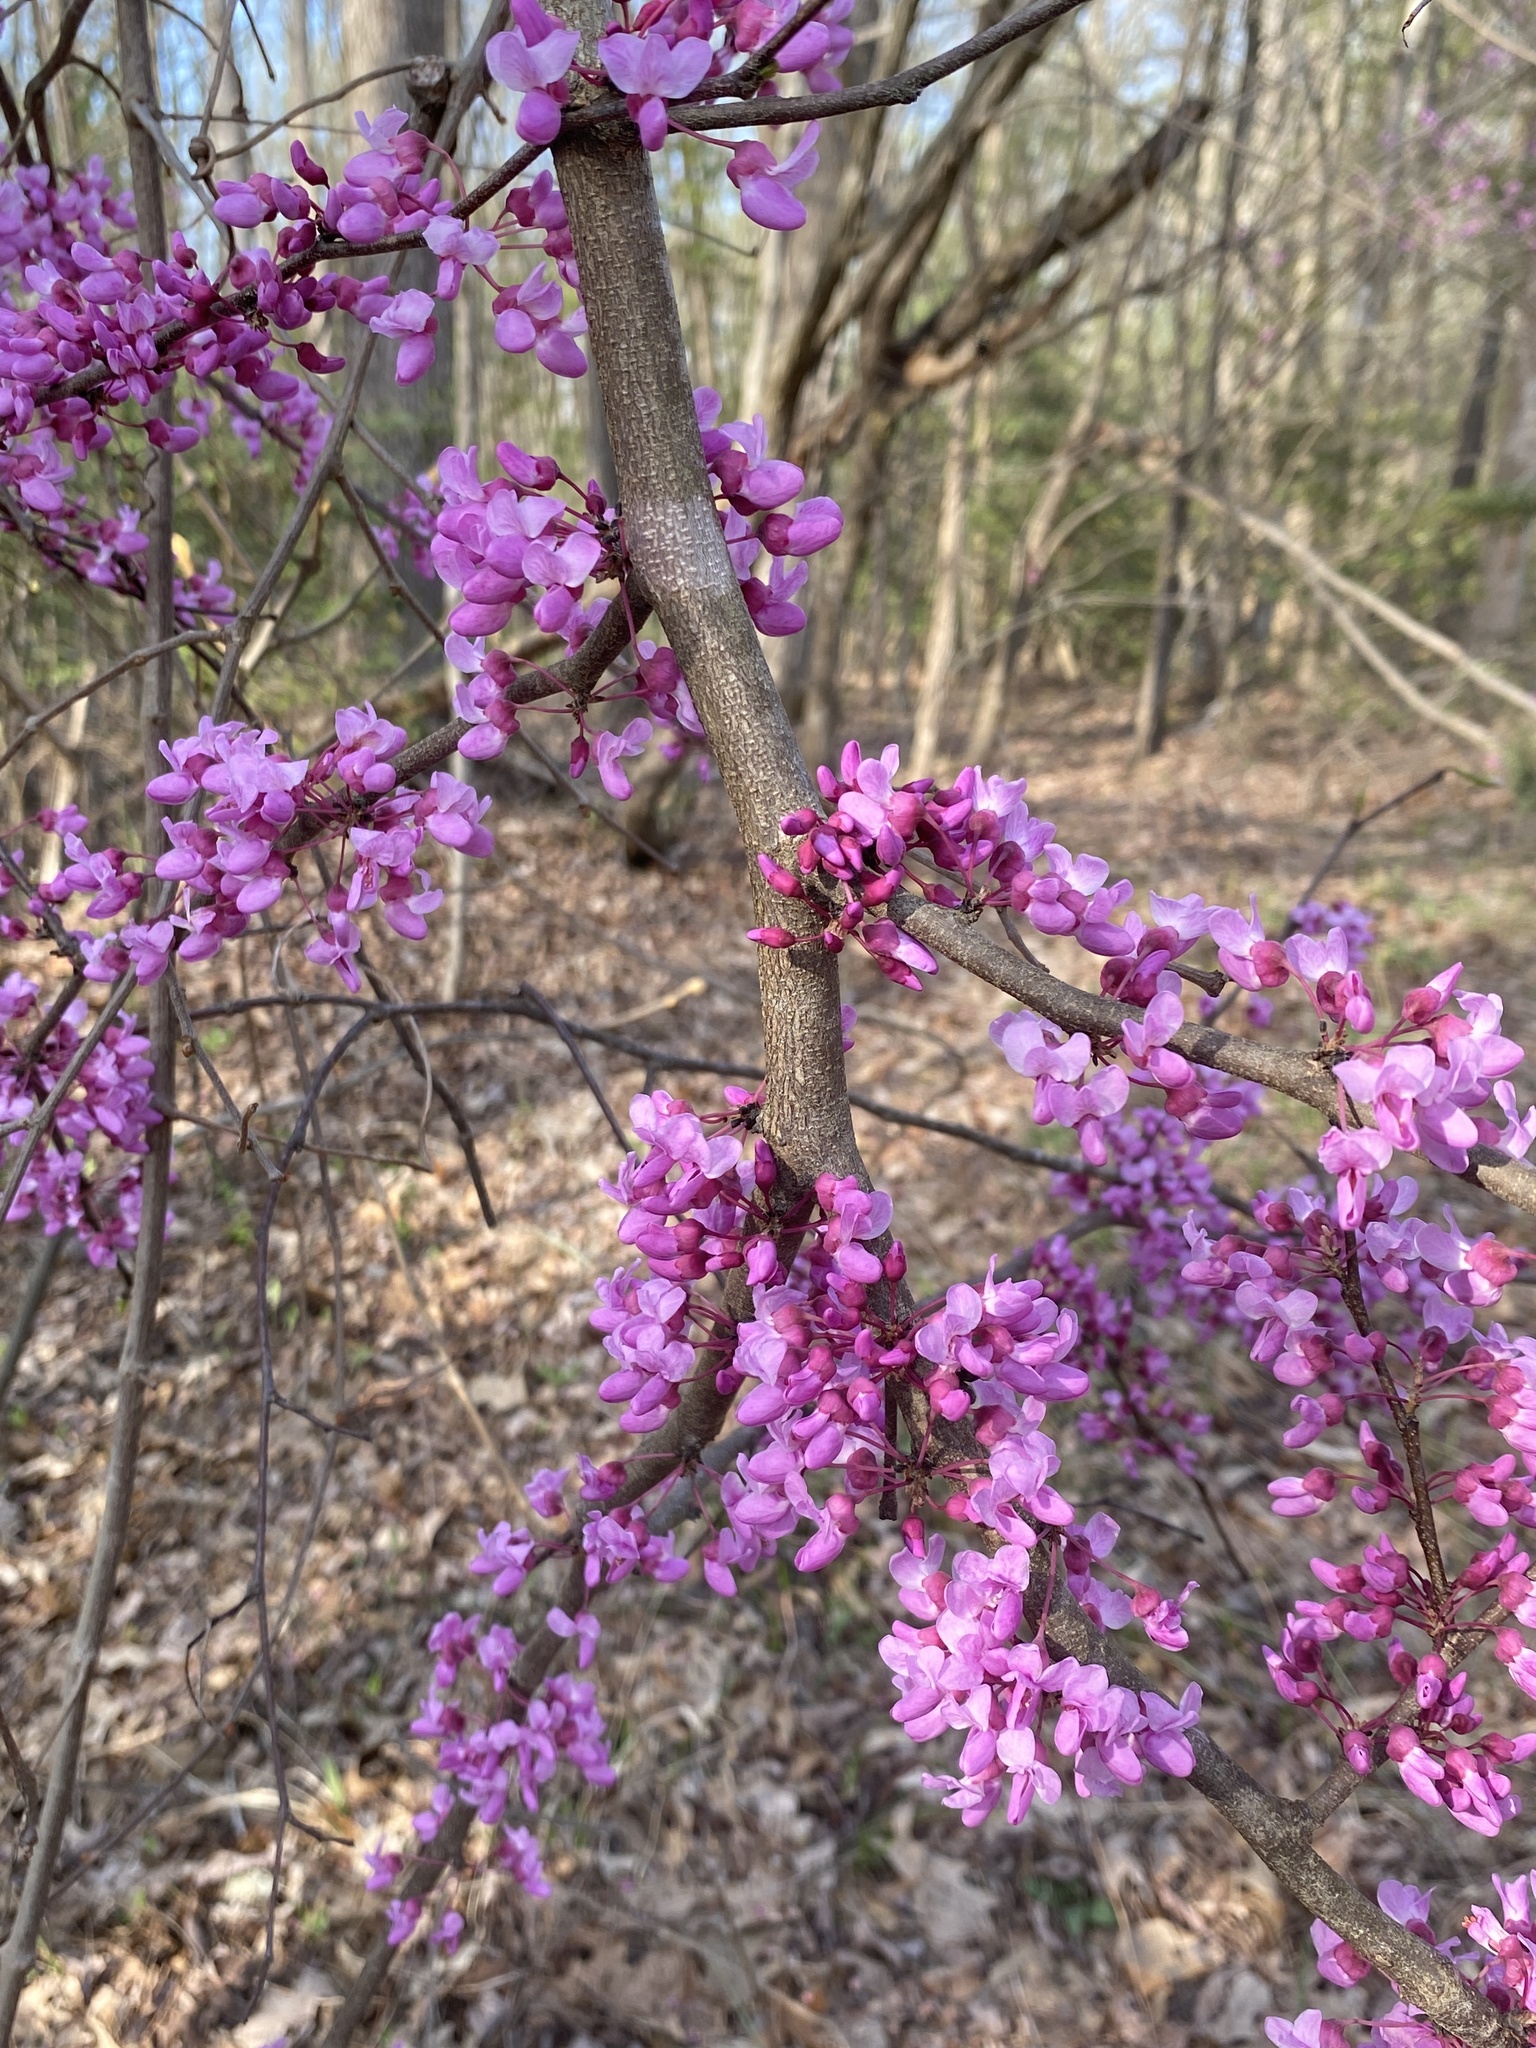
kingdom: Plantae
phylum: Tracheophyta
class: Magnoliopsida
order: Fabales
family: Fabaceae
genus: Cercis
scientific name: Cercis canadensis
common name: Eastern redbud
